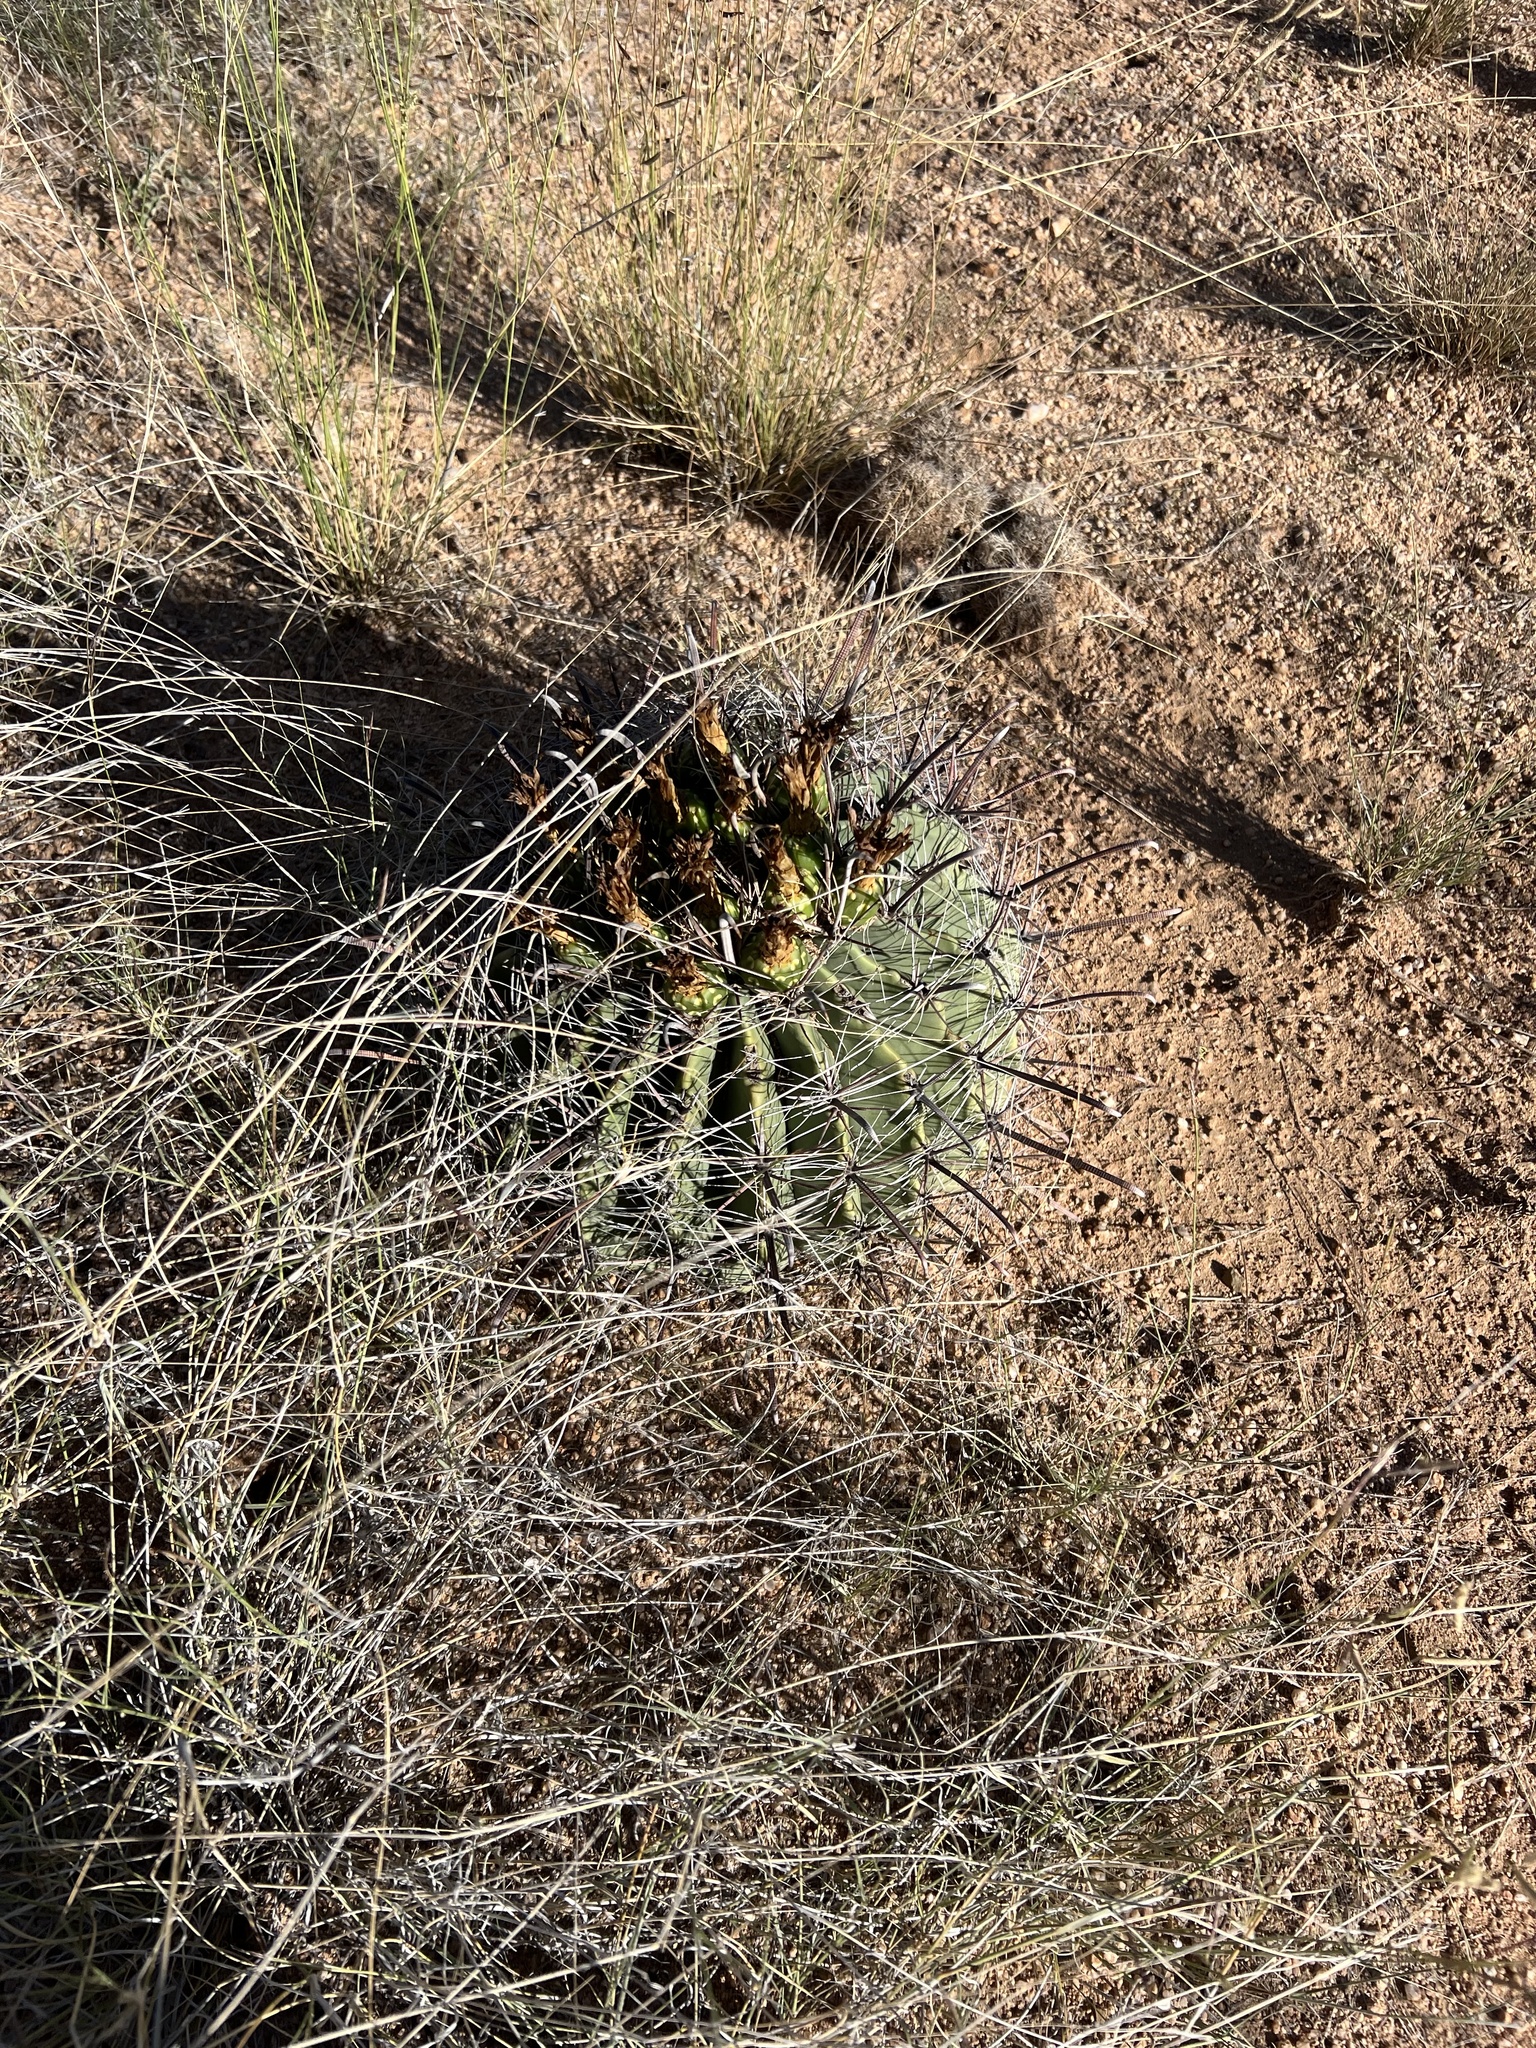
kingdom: Plantae
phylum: Tracheophyta
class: Magnoliopsida
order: Caryophyllales
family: Cactaceae
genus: Ferocactus
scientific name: Ferocactus wislizeni
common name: Candy barrel cactus
